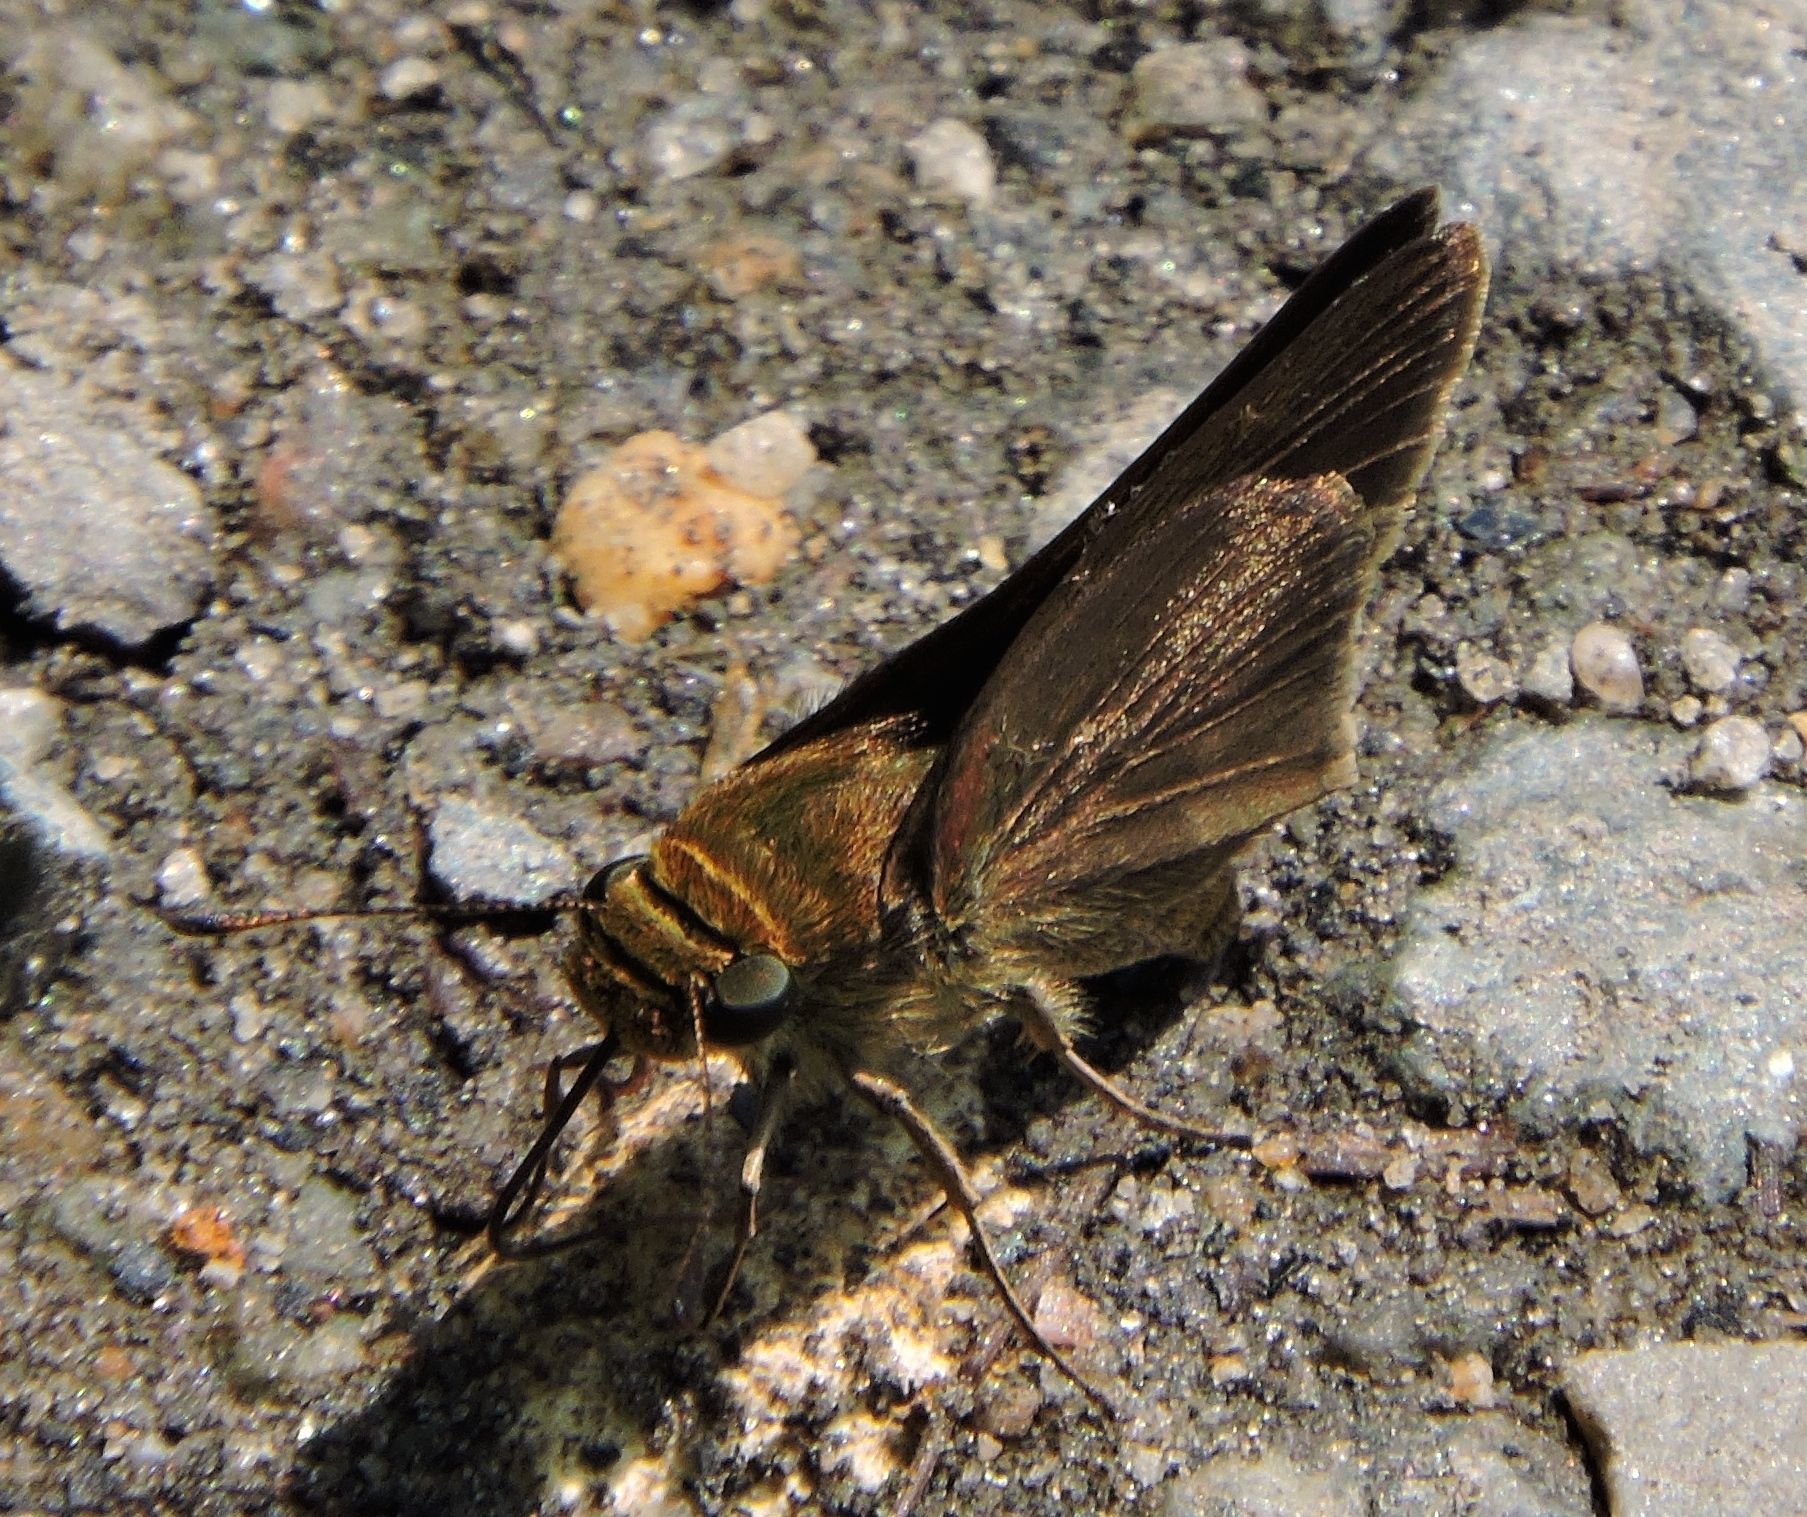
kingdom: Animalia
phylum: Arthropoda
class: Insecta
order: Lepidoptera
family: Hesperiidae
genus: Euphyes
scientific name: Euphyes vestris
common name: Dun skipper
